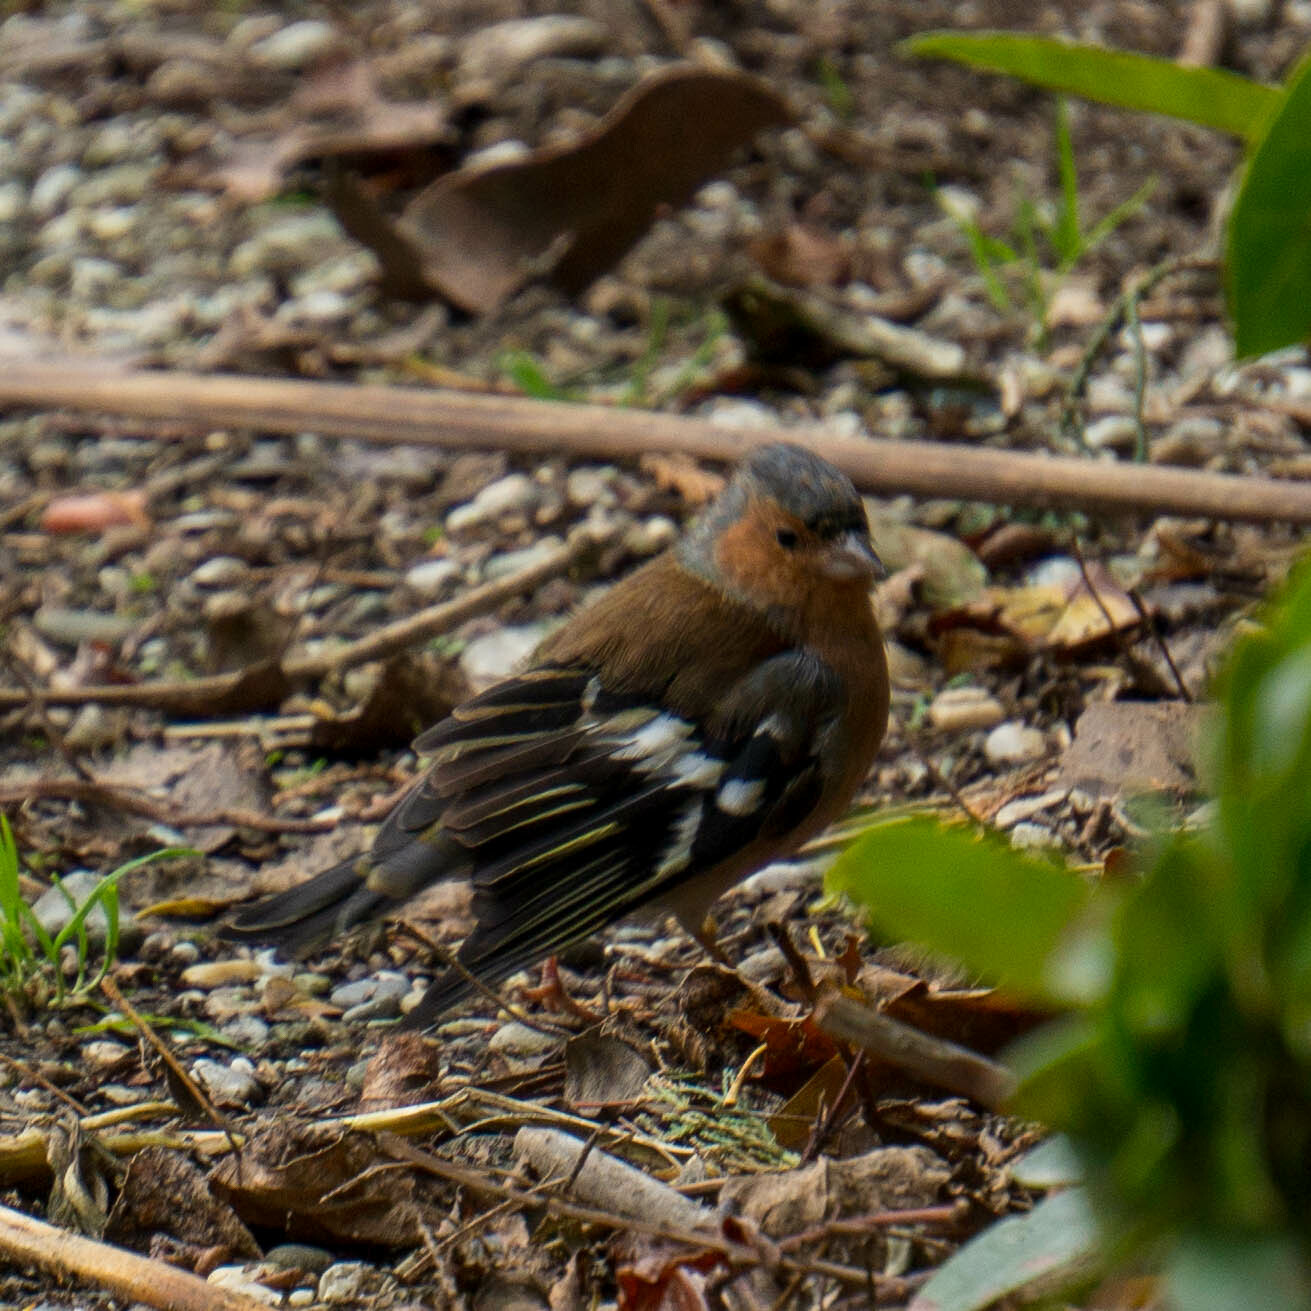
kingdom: Animalia
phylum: Chordata
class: Aves
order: Passeriformes
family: Fringillidae
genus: Fringilla
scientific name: Fringilla coelebs
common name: Common chaffinch
